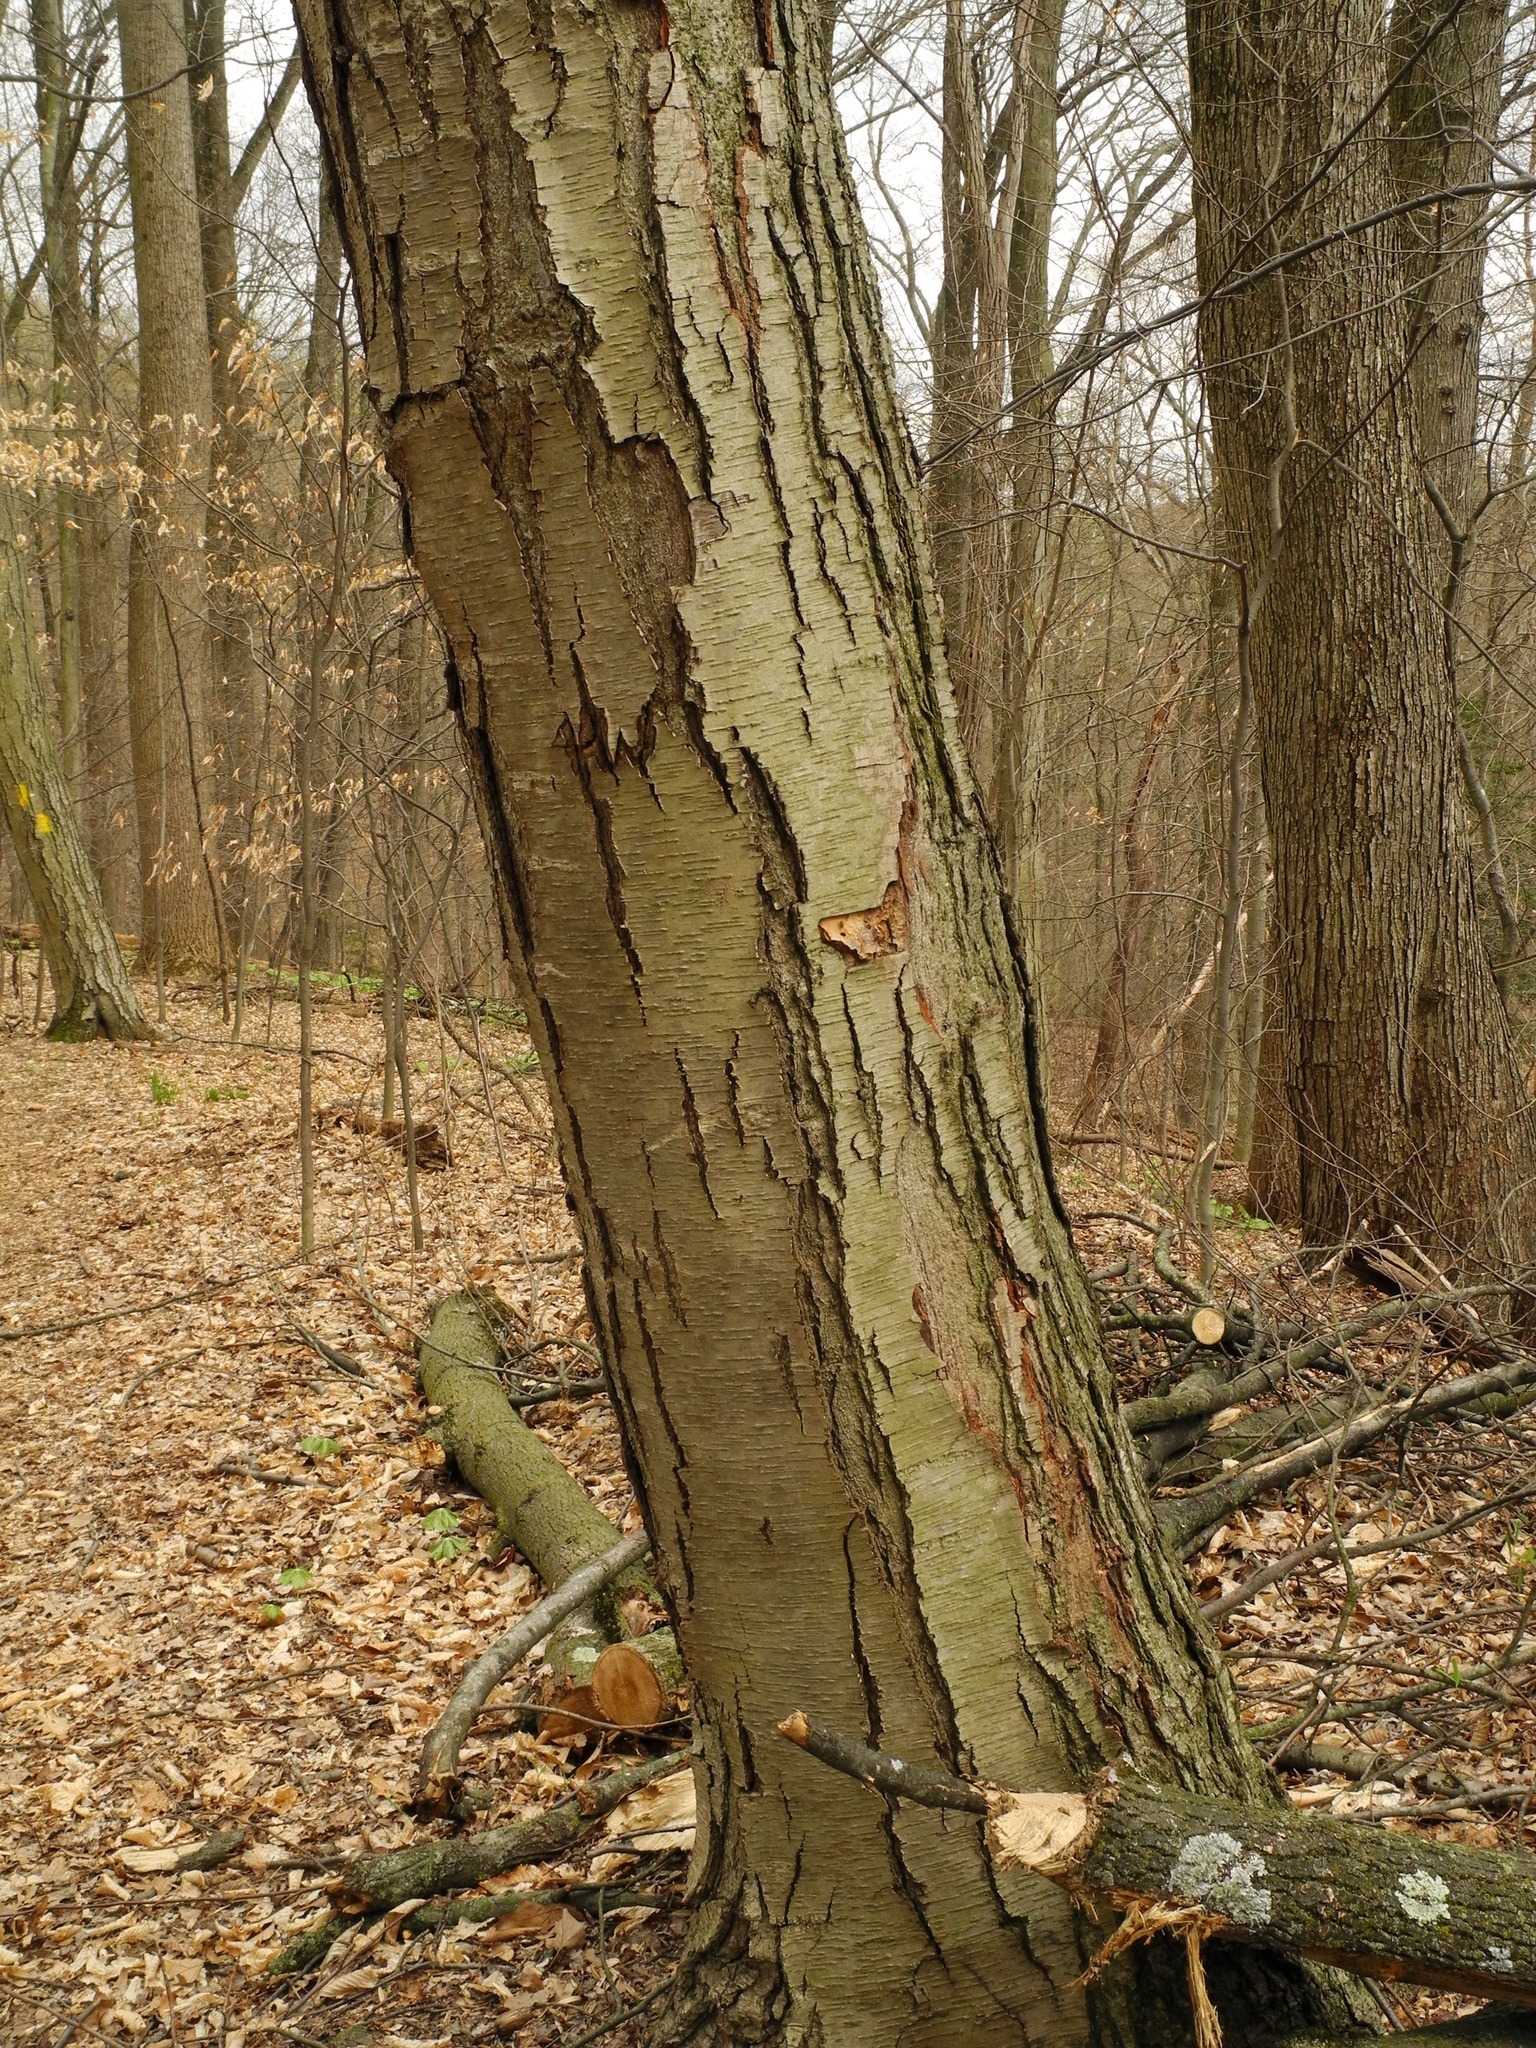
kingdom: Plantae
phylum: Tracheophyta
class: Magnoliopsida
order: Fagales
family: Betulaceae
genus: Betula
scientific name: Betula lenta
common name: Black birch
